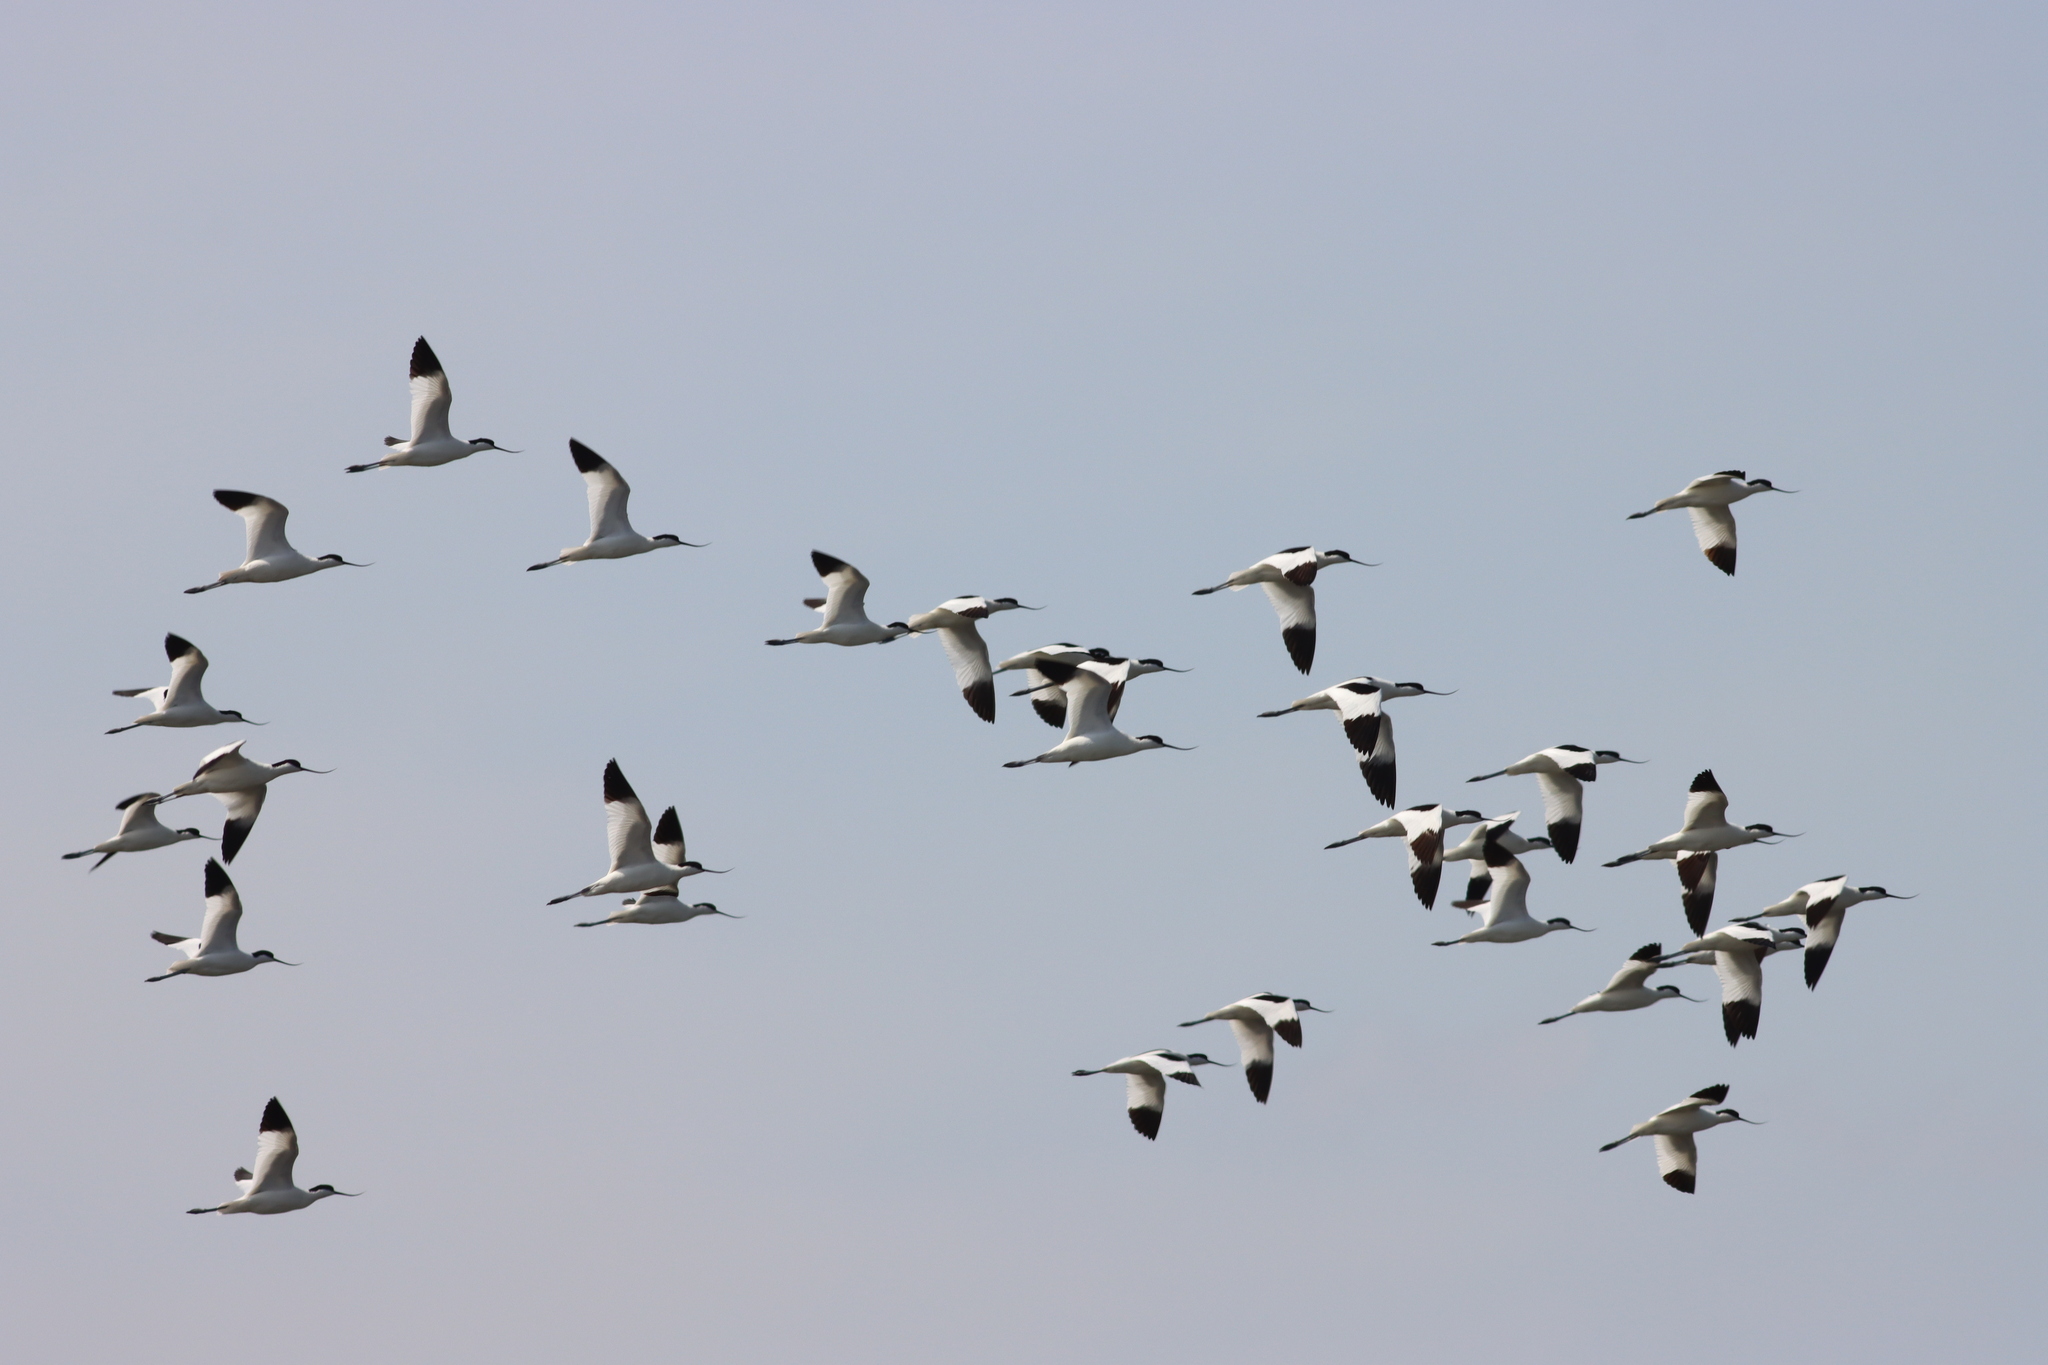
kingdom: Animalia
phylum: Chordata
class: Aves
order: Charadriiformes
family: Recurvirostridae
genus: Recurvirostra
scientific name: Recurvirostra avosetta
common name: Pied avocet
